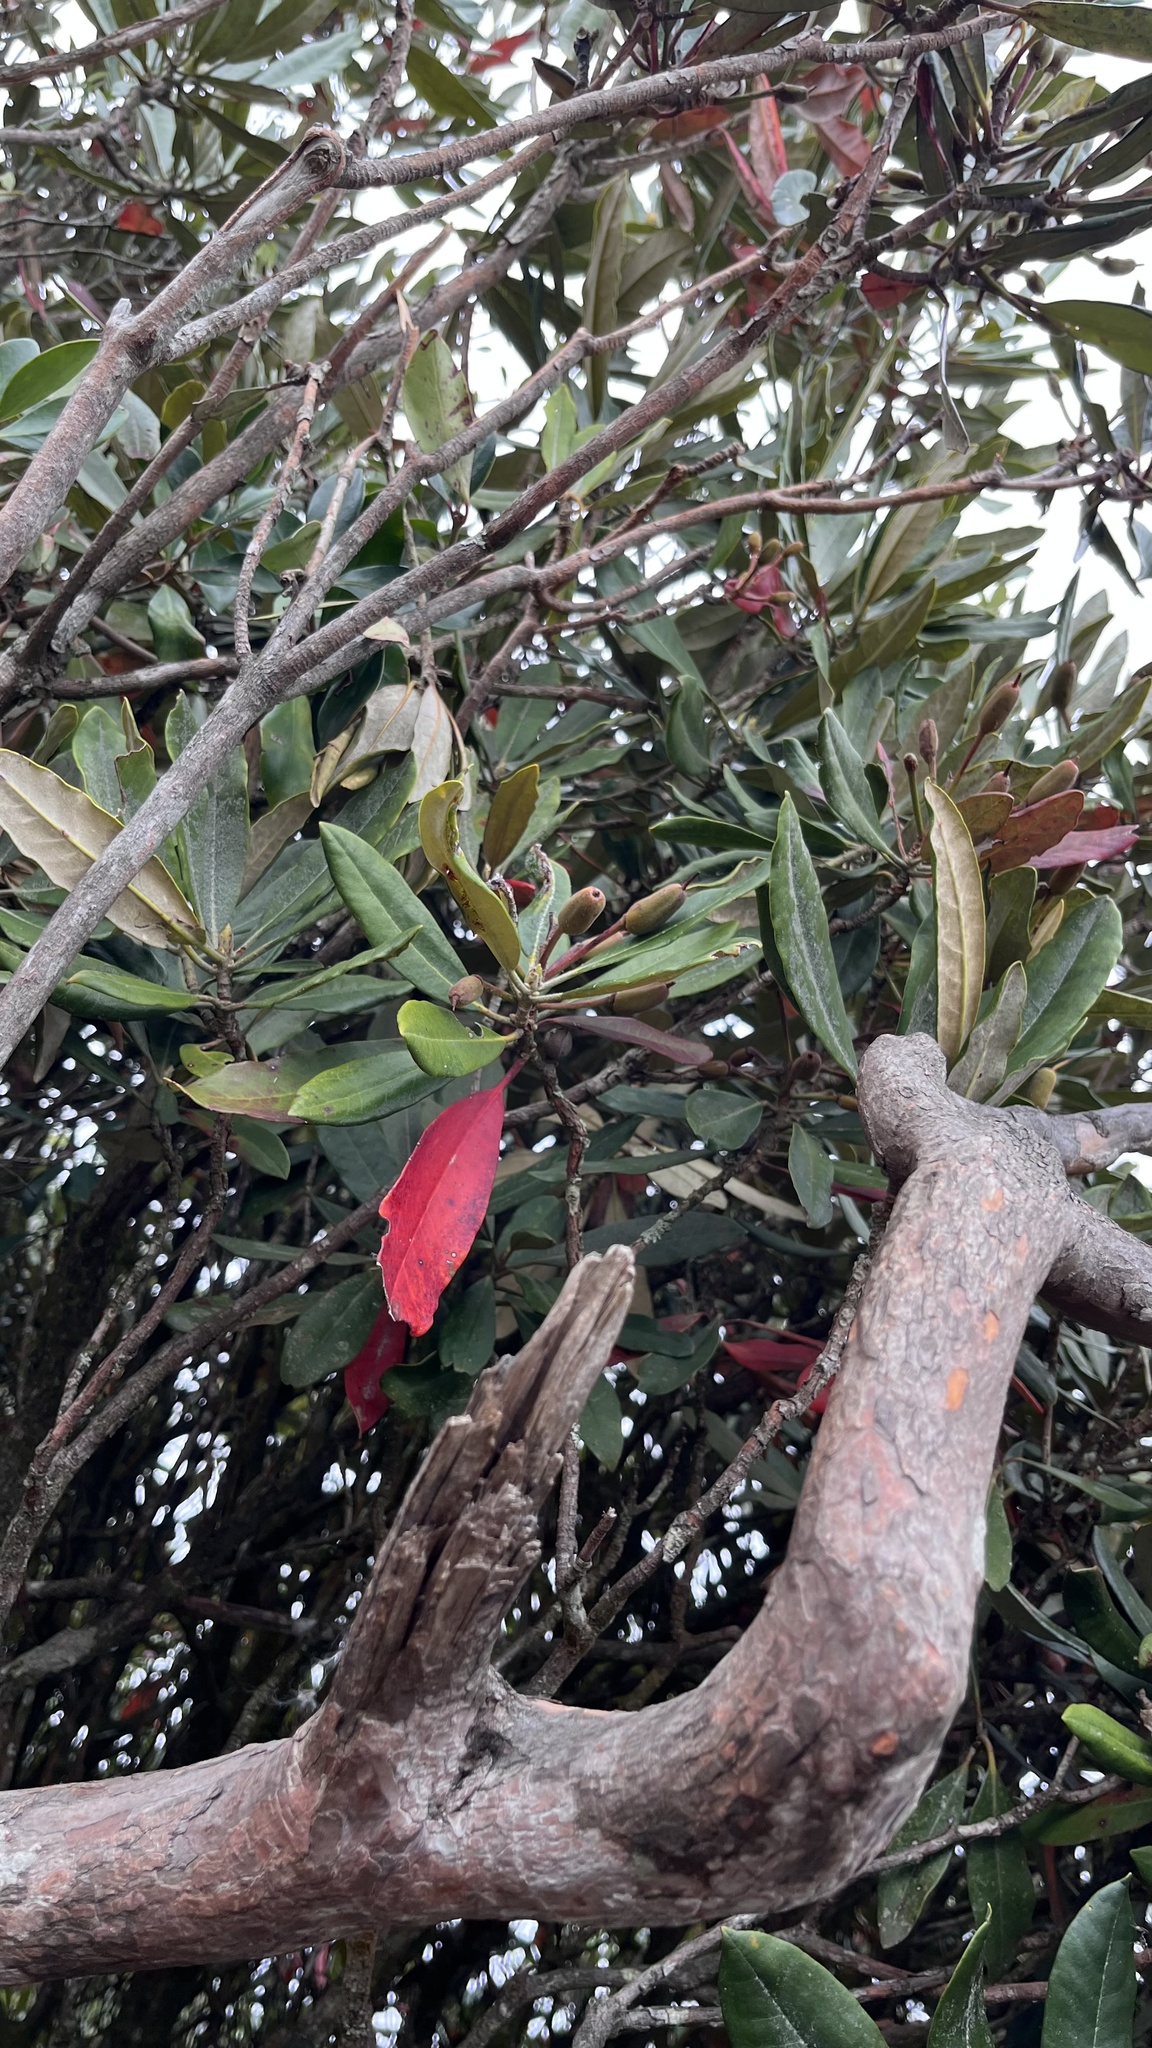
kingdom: Plantae
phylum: Tracheophyta
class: Magnoliopsida
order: Ericales
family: Ericaceae
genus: Rhododendron
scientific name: Rhododendron formosanum
